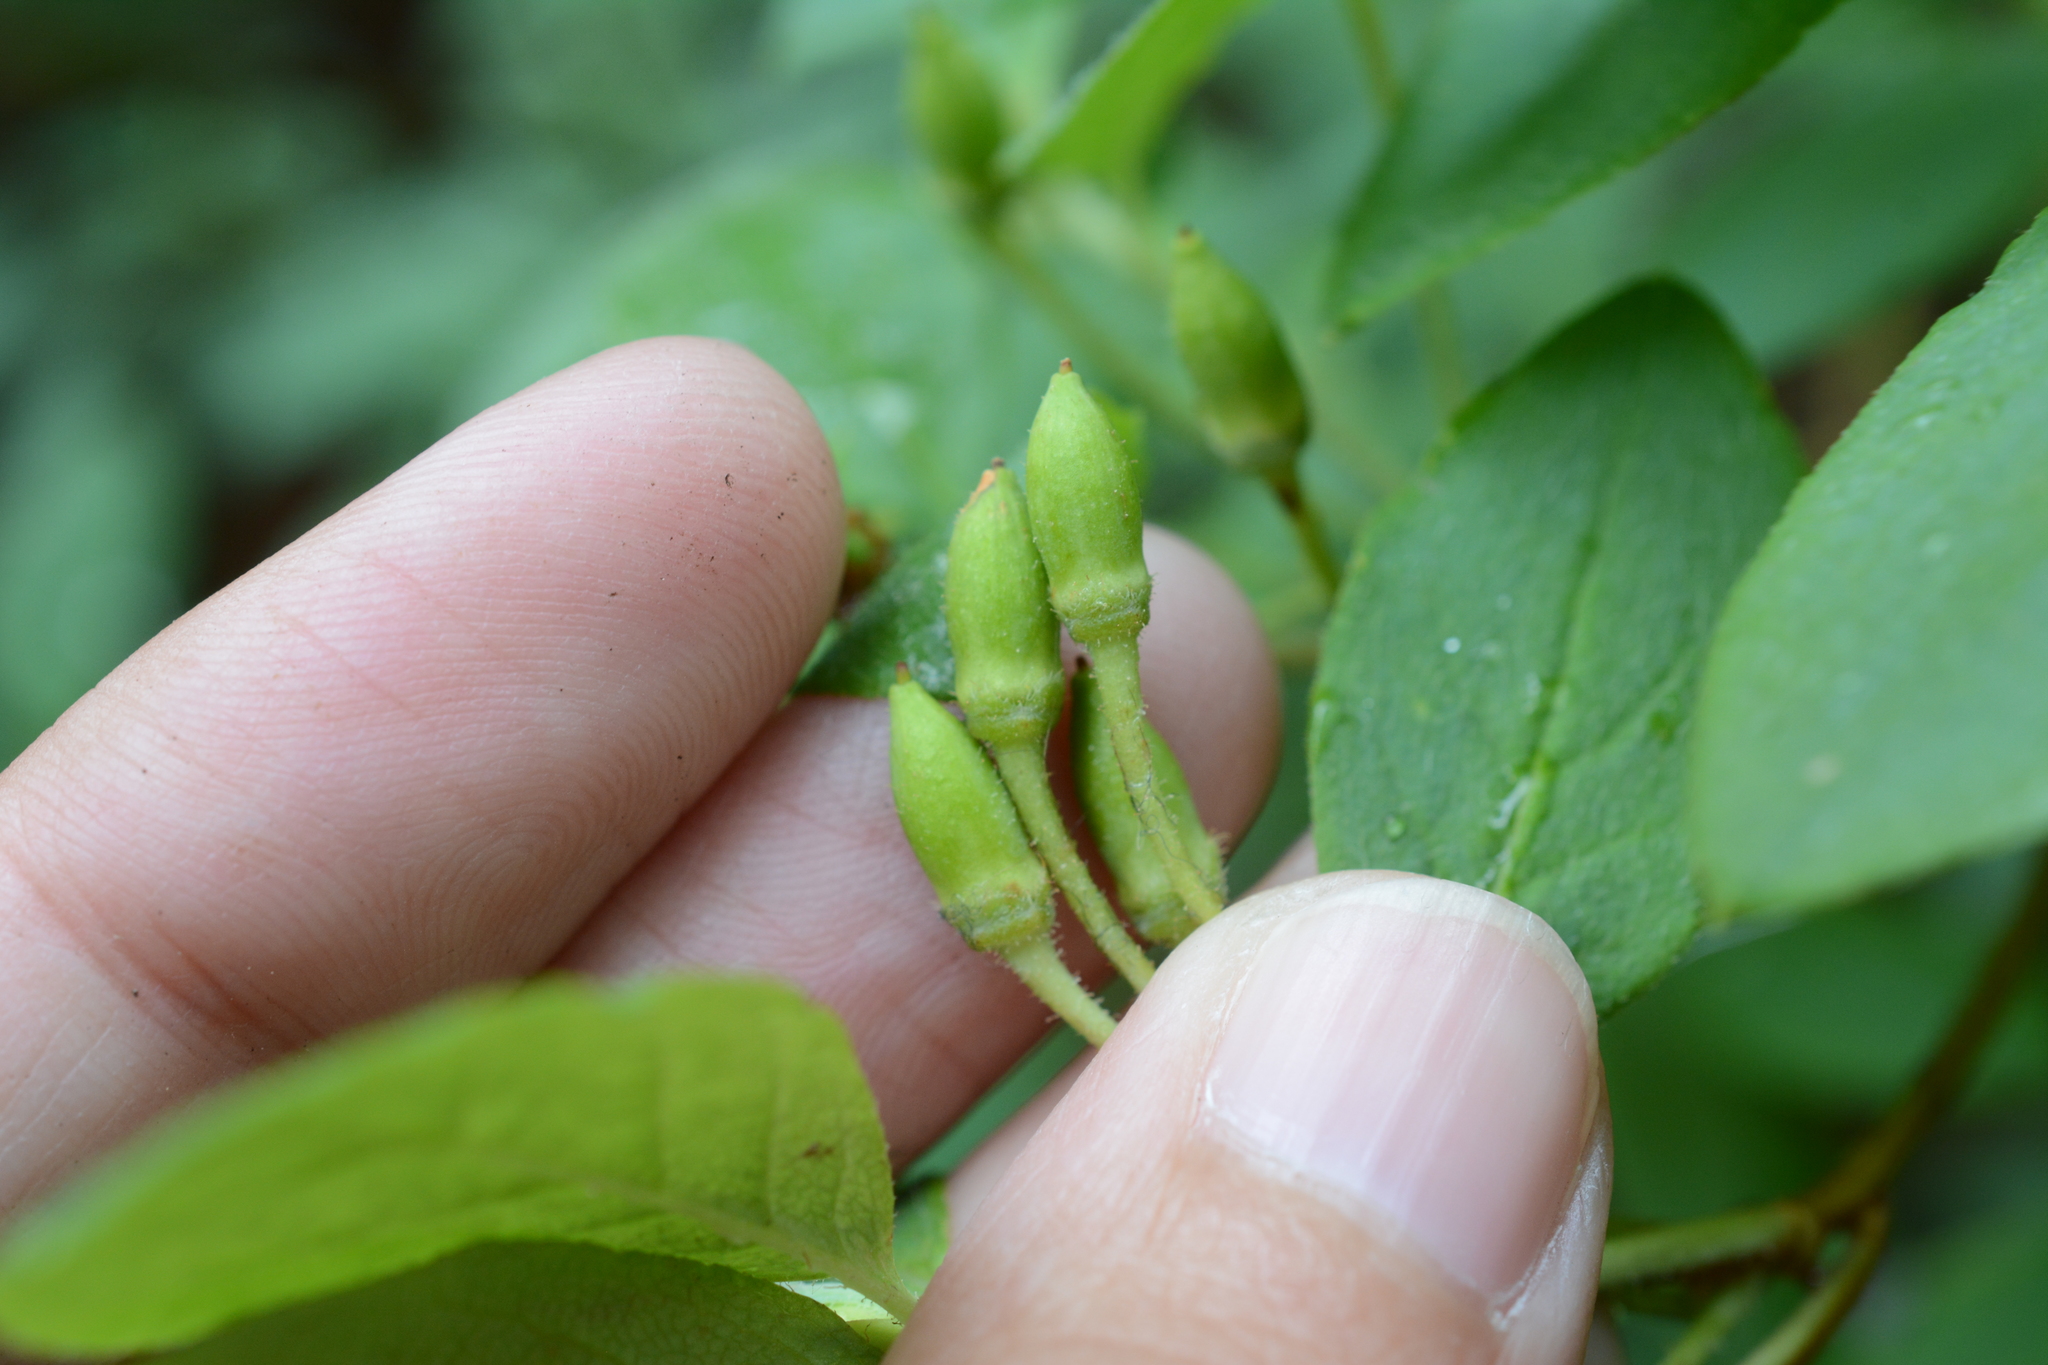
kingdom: Plantae
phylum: Tracheophyta
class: Magnoliopsida
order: Ericales
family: Ericaceae
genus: Rhododendron
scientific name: Rhododendron menziesii
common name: Pacific menziesia
